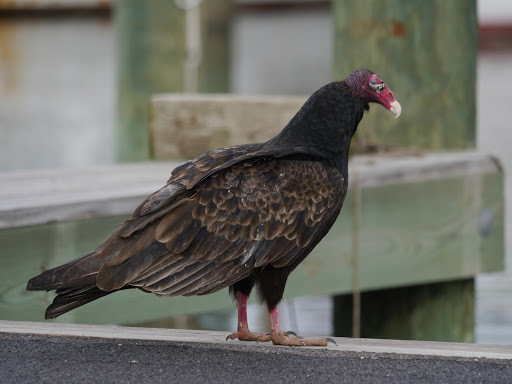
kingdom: Animalia
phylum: Chordata
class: Aves
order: Accipitriformes
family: Cathartidae
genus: Cathartes
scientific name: Cathartes aura
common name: Turkey vulture
